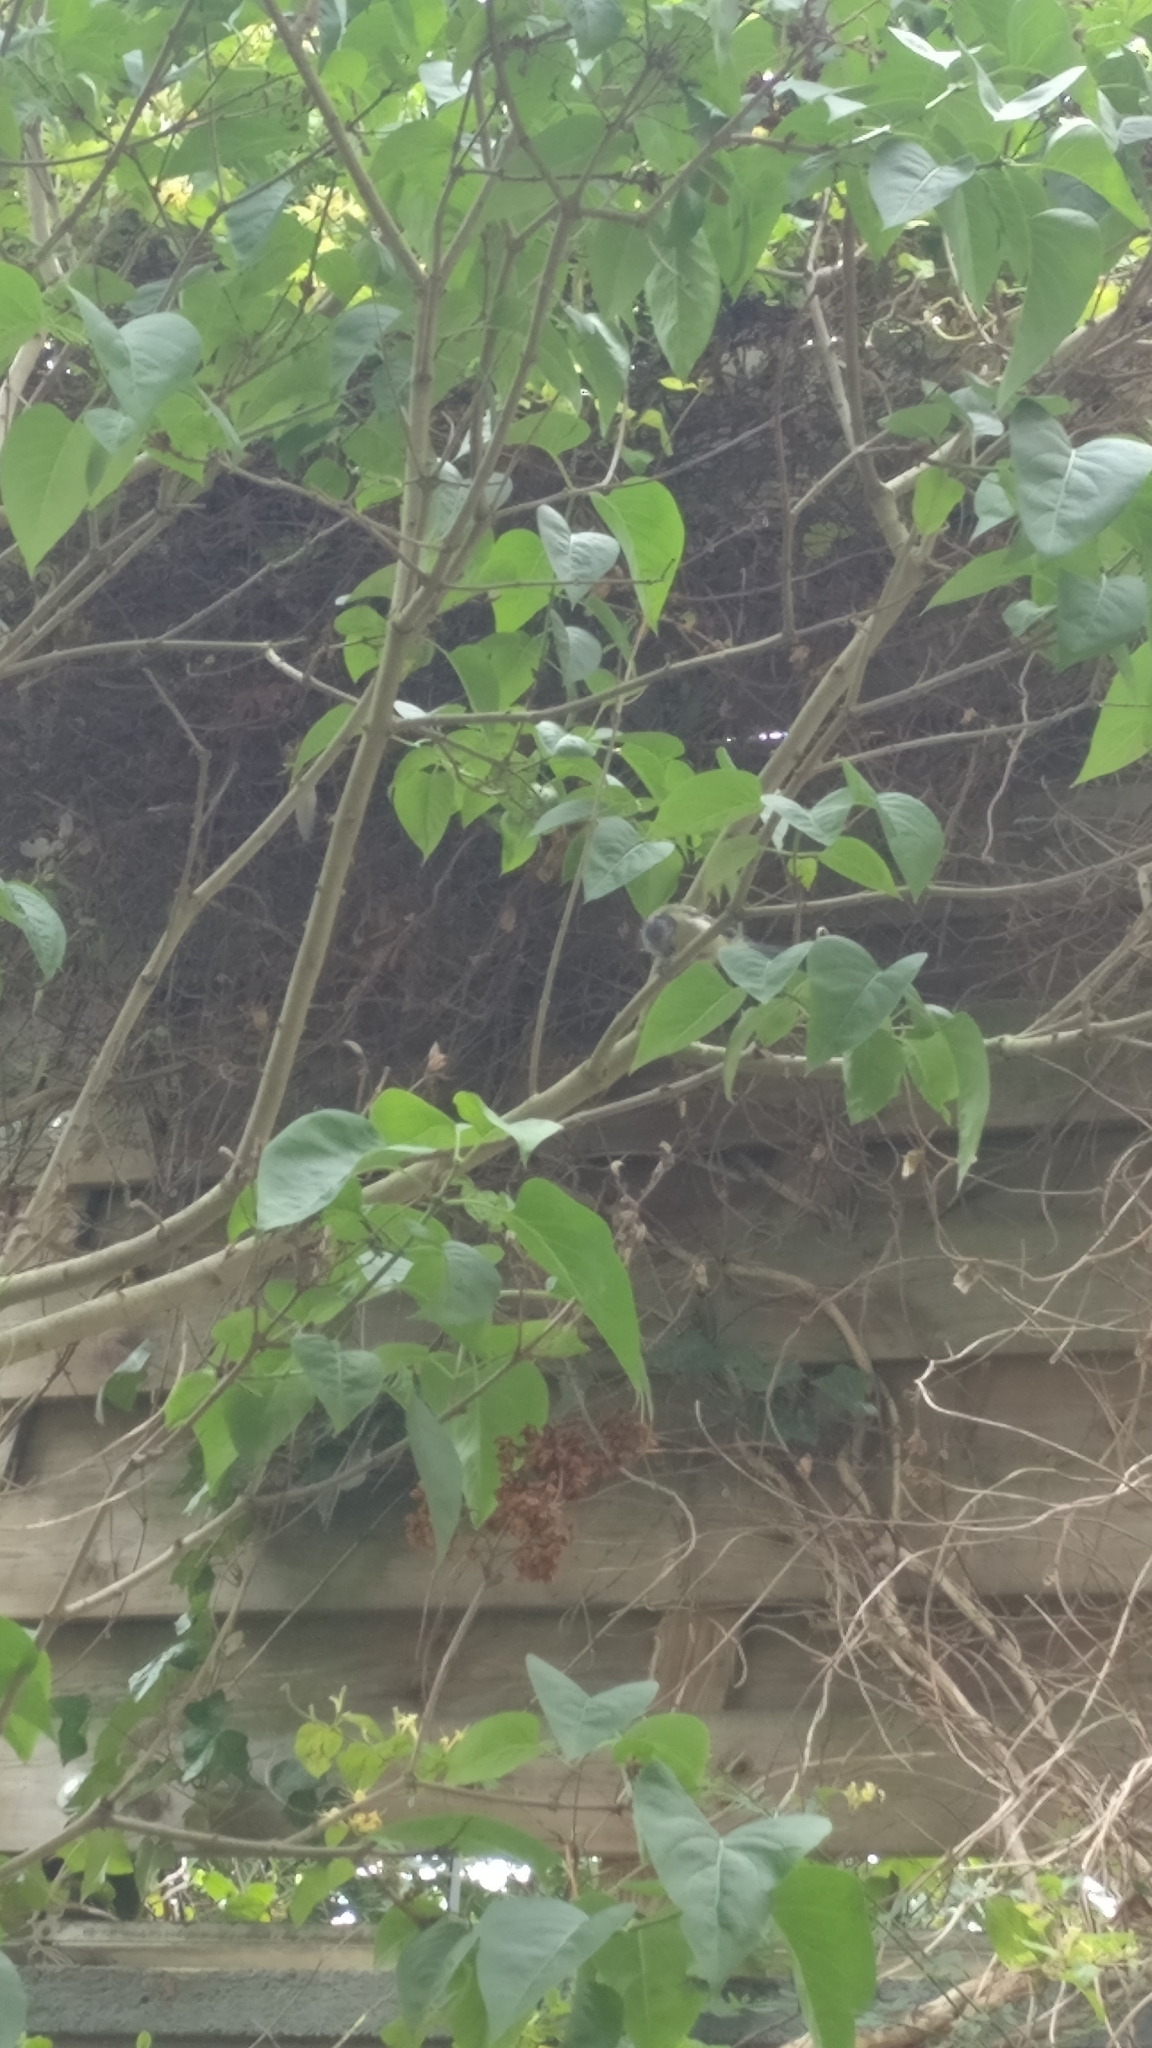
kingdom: Animalia
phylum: Chordata
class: Aves
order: Passeriformes
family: Paridae
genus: Cyanistes
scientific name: Cyanistes caeruleus
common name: Eurasian blue tit
